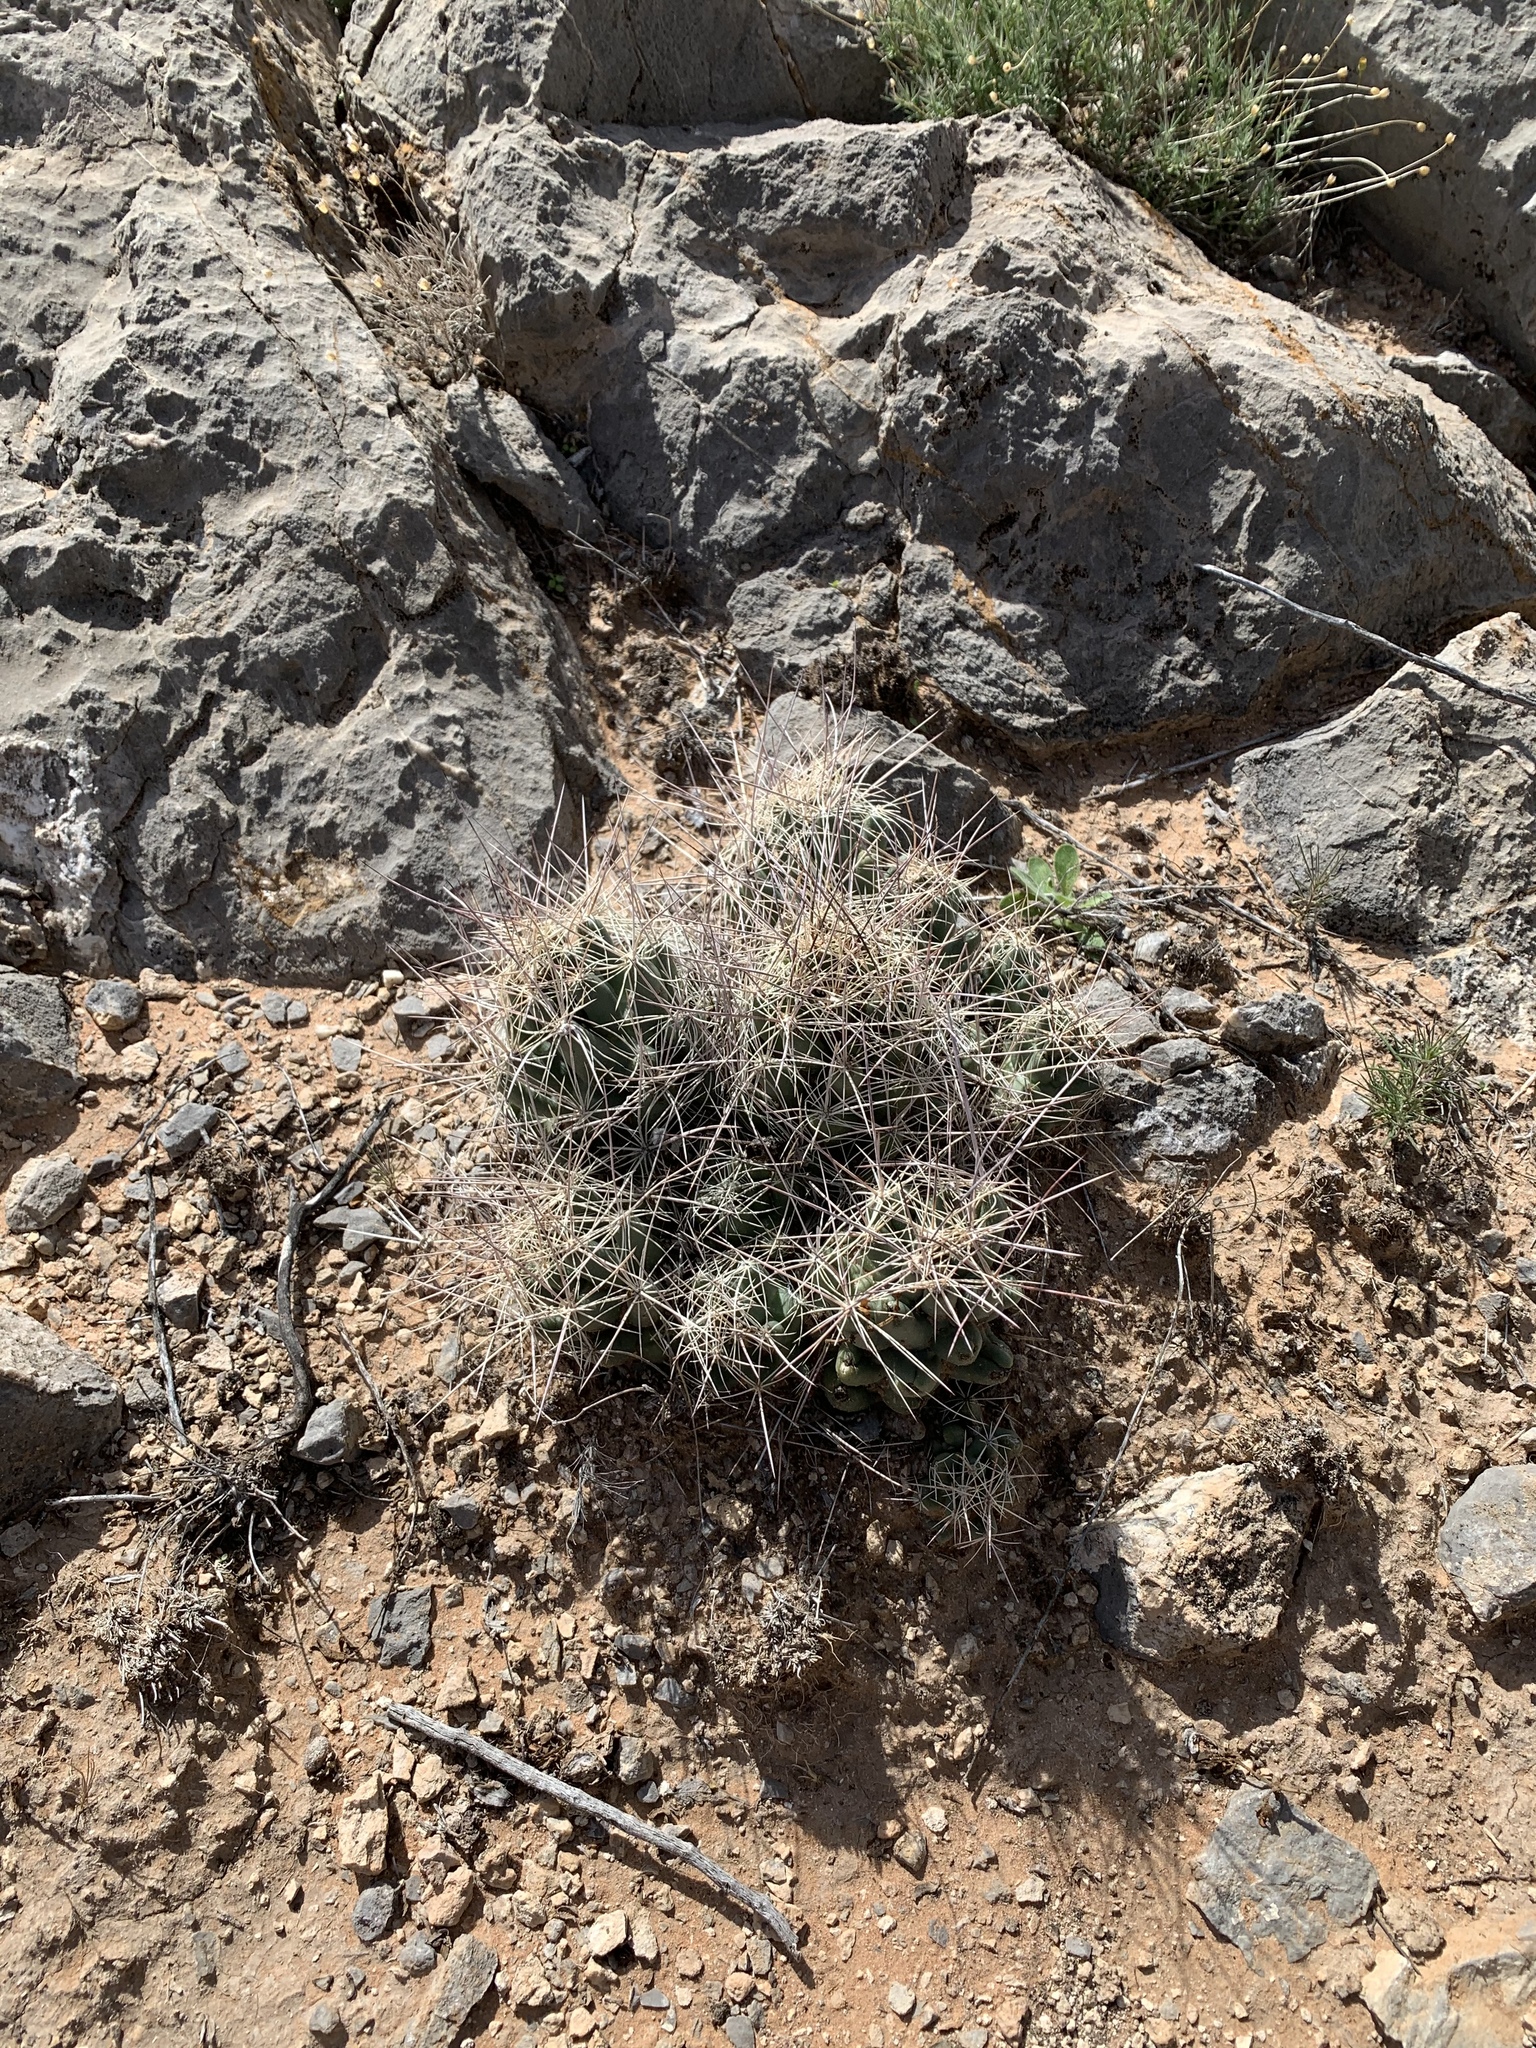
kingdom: Plantae
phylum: Tracheophyta
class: Magnoliopsida
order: Caryophyllales
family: Cactaceae
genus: Coryphantha
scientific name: Coryphantha macromeris
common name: Nipple beehive cactus
